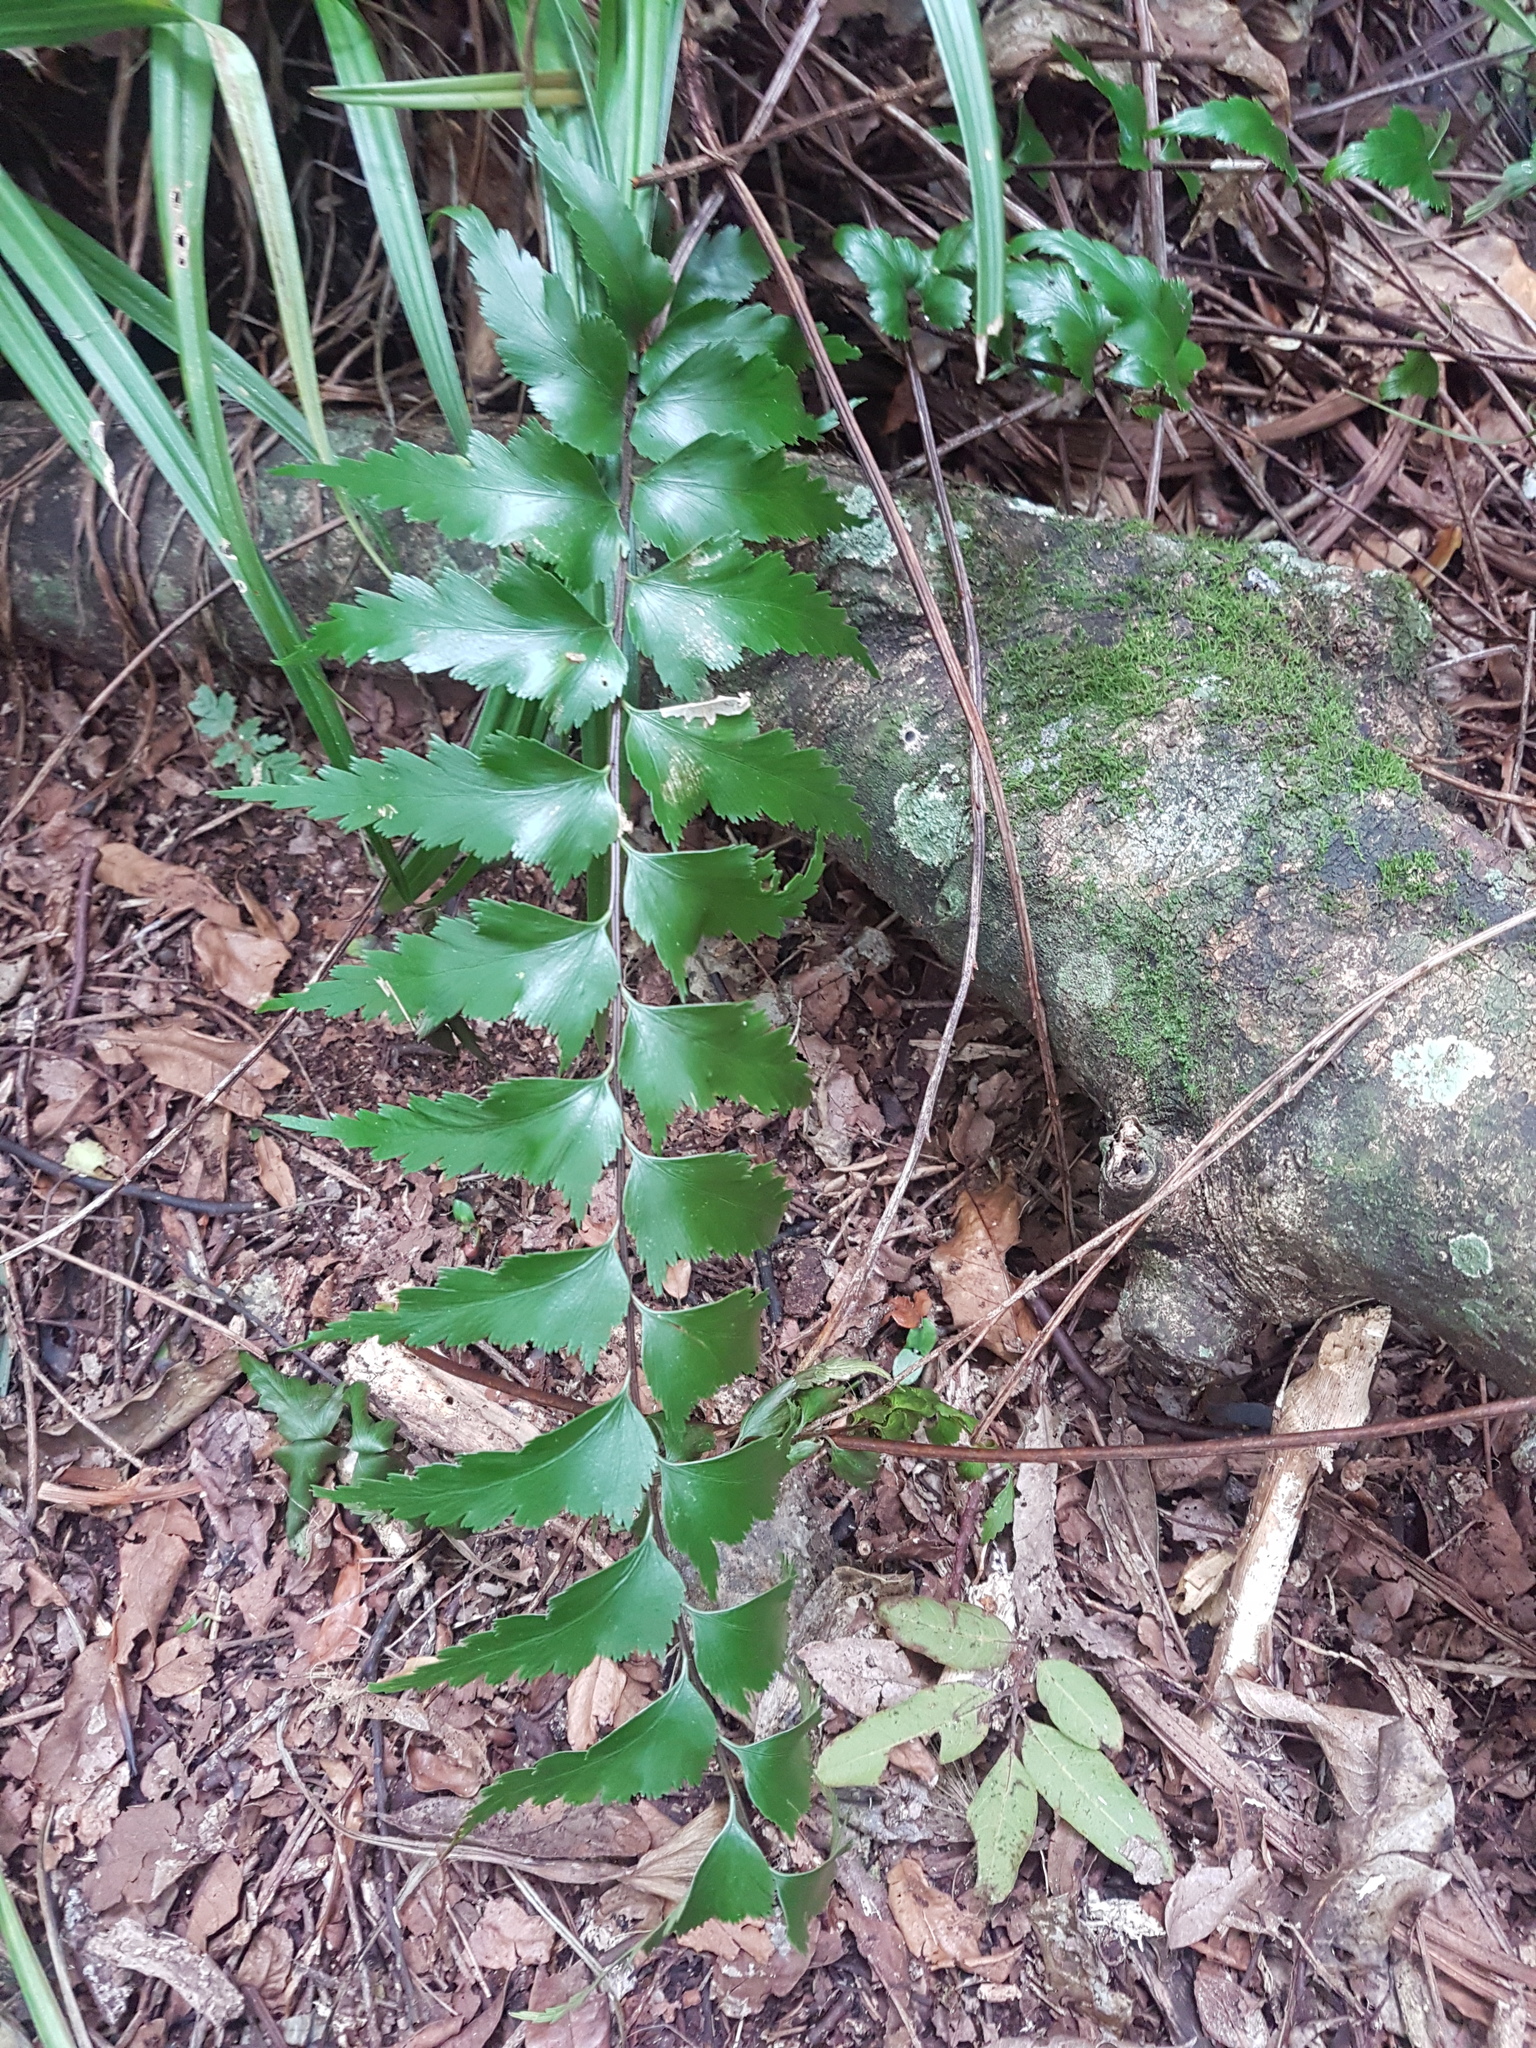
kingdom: Plantae
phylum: Tracheophyta
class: Polypodiopsida
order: Polypodiales
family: Aspleniaceae
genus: Asplenium
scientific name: Asplenium polyodon
